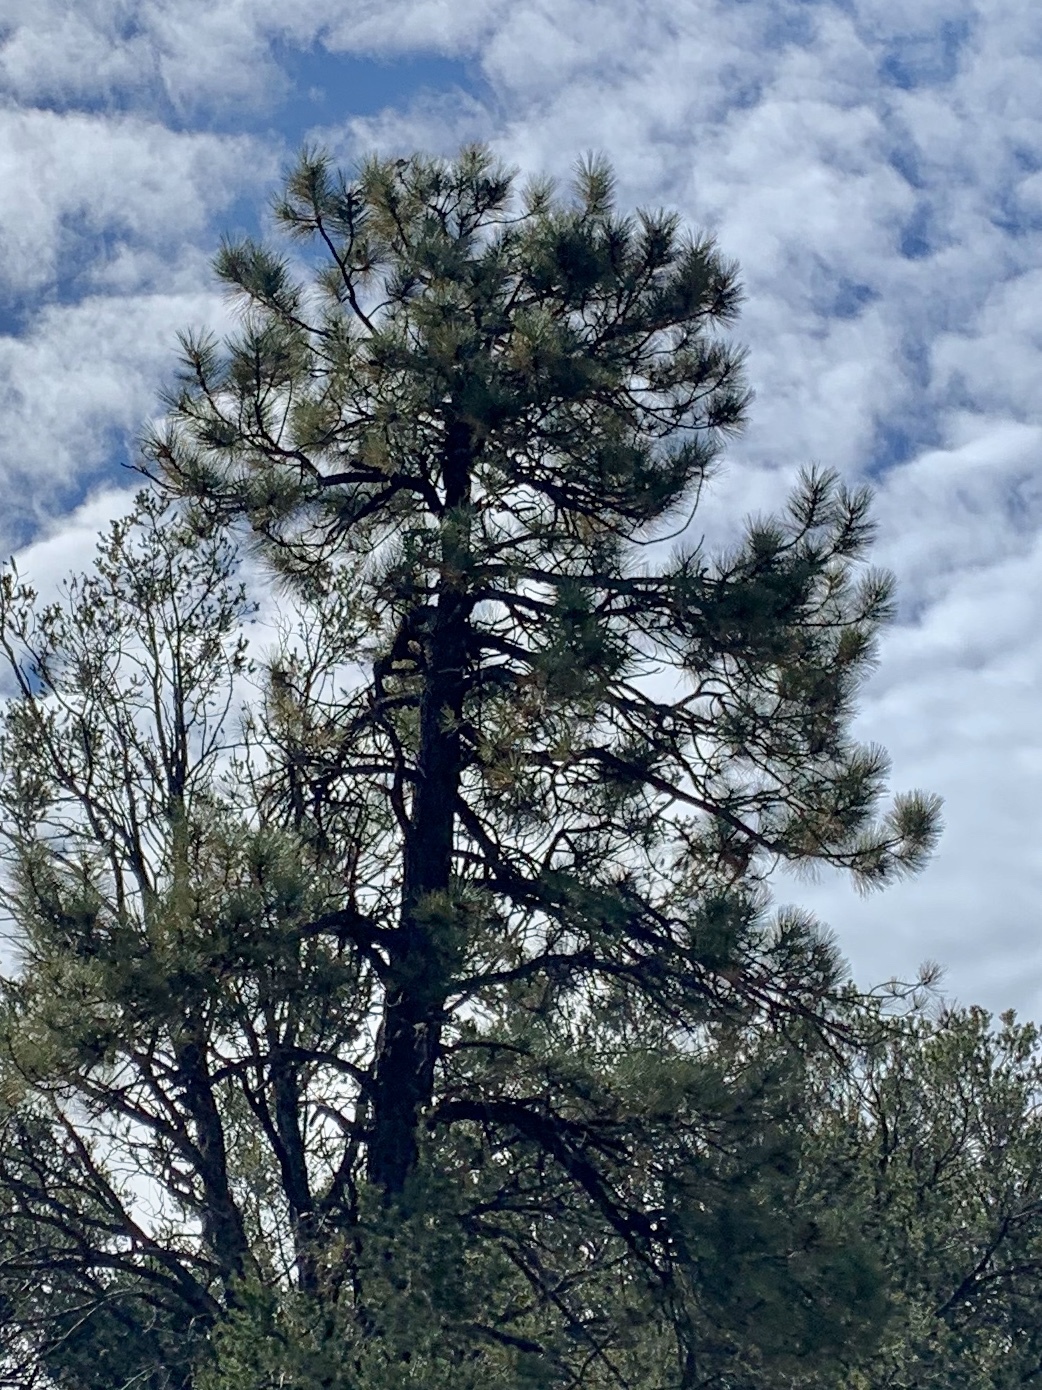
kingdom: Plantae
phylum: Tracheophyta
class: Pinopsida
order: Pinales
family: Pinaceae
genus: Pinus
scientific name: Pinus ponderosa
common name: Western yellow-pine
